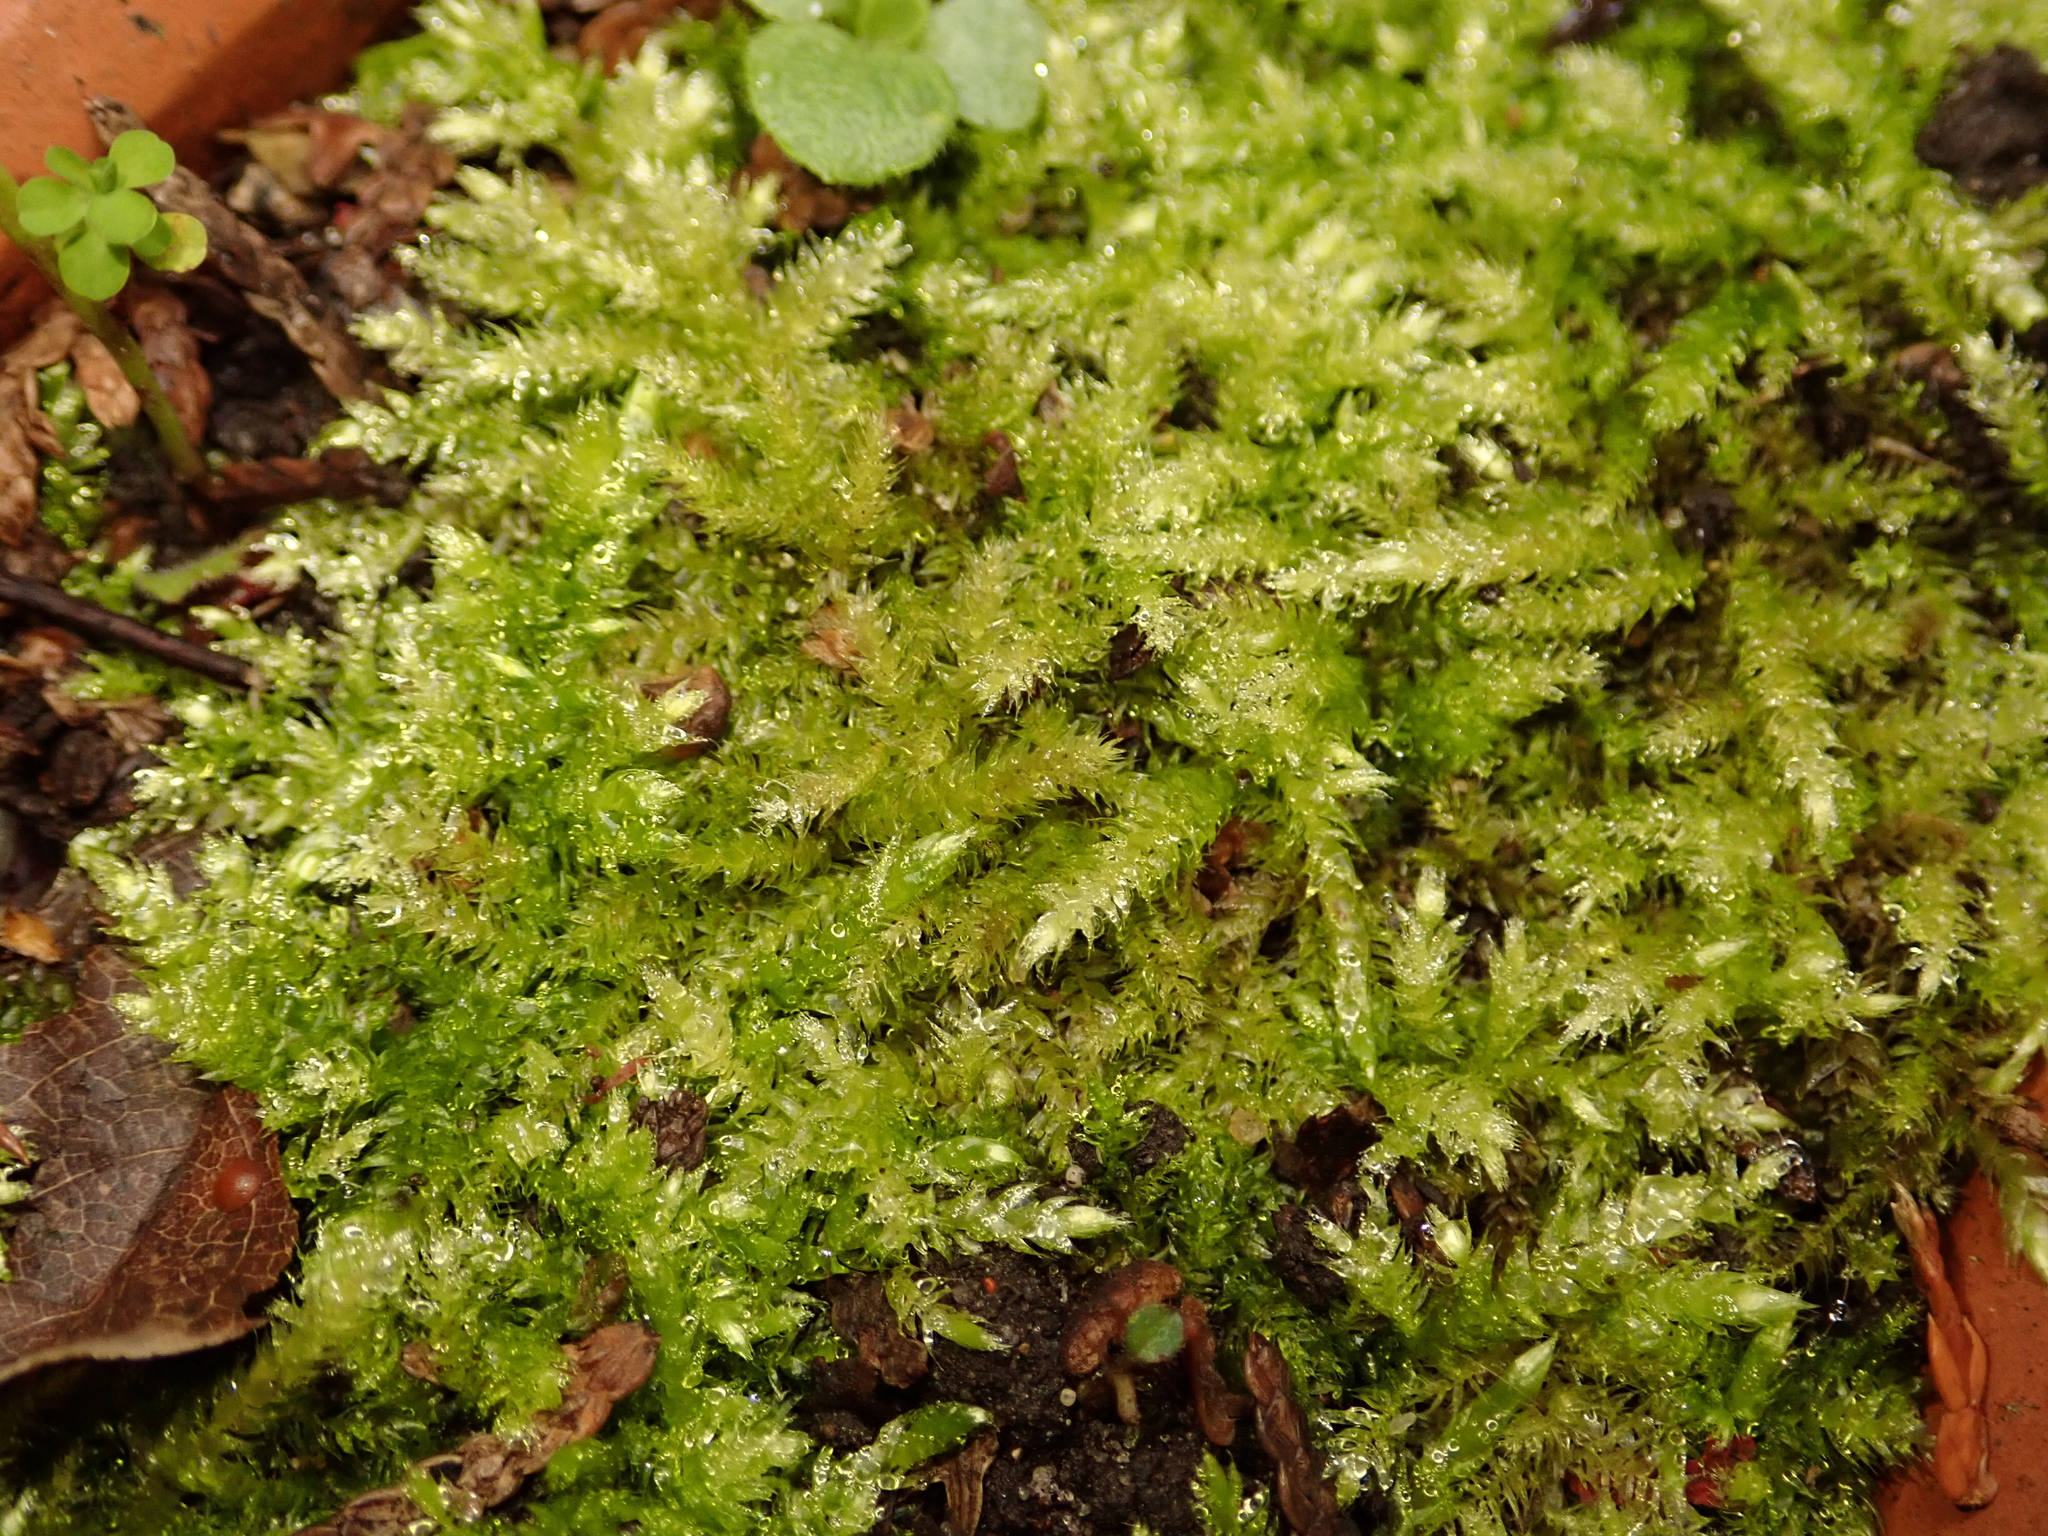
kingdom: Plantae
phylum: Bryophyta
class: Bryopsida
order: Hypnales
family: Hypnaceae
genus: Hypnum
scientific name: Hypnum cupressiforme
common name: Cypress-leaved plait-moss
